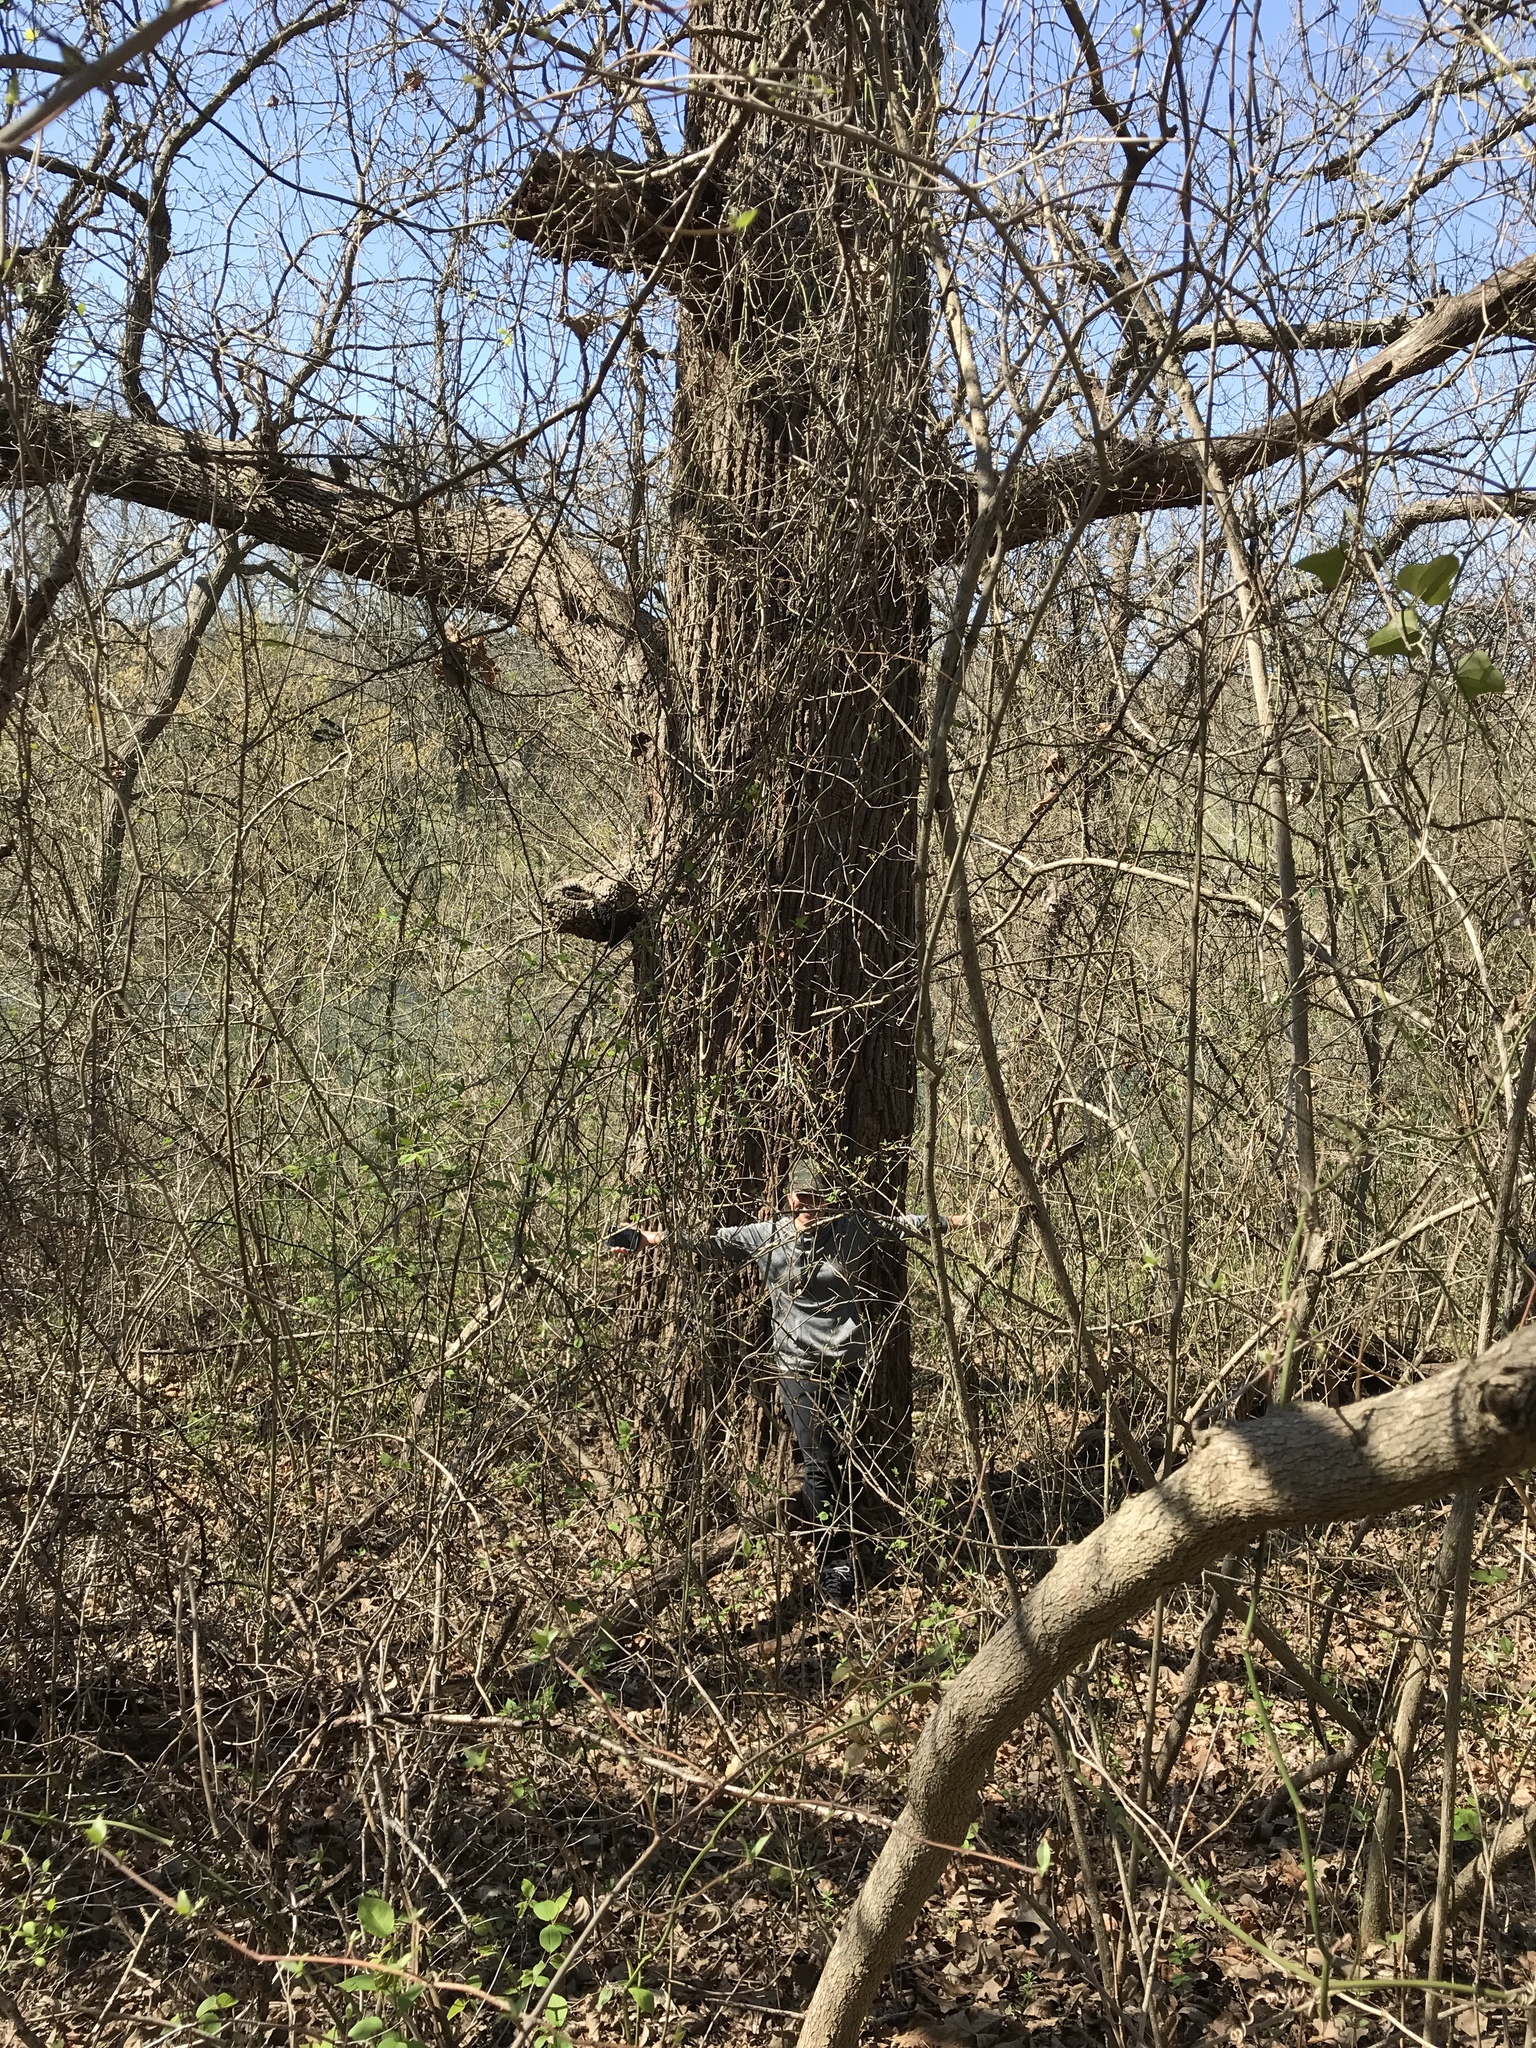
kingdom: Plantae
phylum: Tracheophyta
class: Magnoliopsida
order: Fagales
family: Fagaceae
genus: Quercus
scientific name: Quercus macrocarpa
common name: Bur oak
